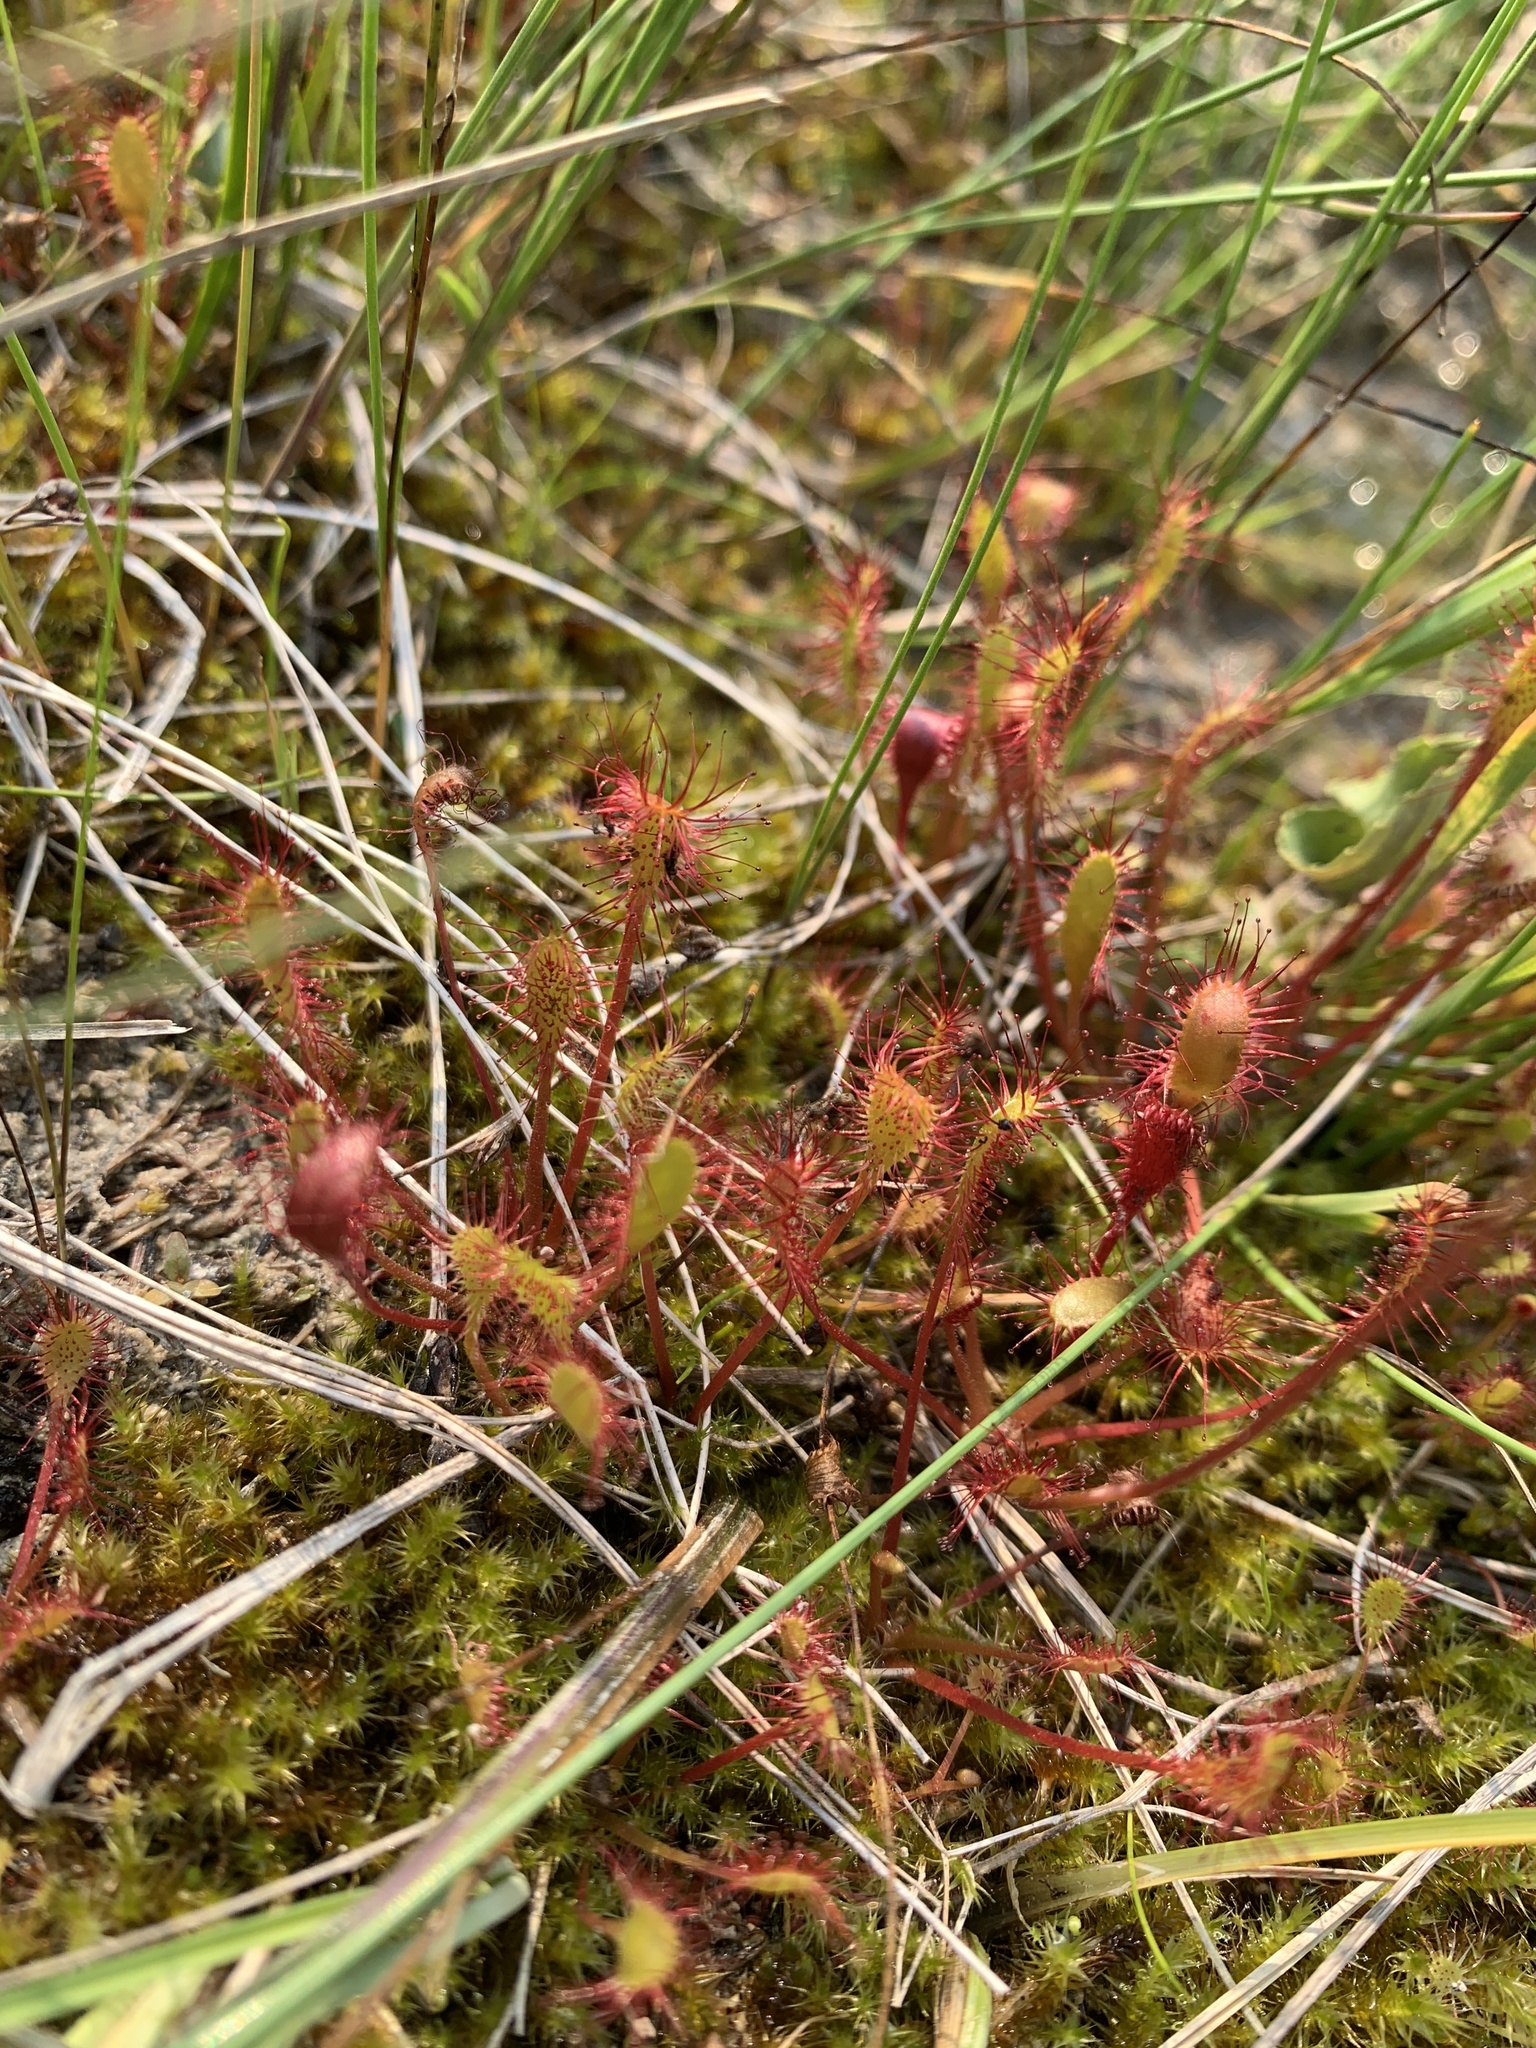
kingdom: Plantae
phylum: Tracheophyta
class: Magnoliopsida
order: Caryophyllales
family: Droseraceae
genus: Drosera
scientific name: Drosera anglica
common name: Great sundew
